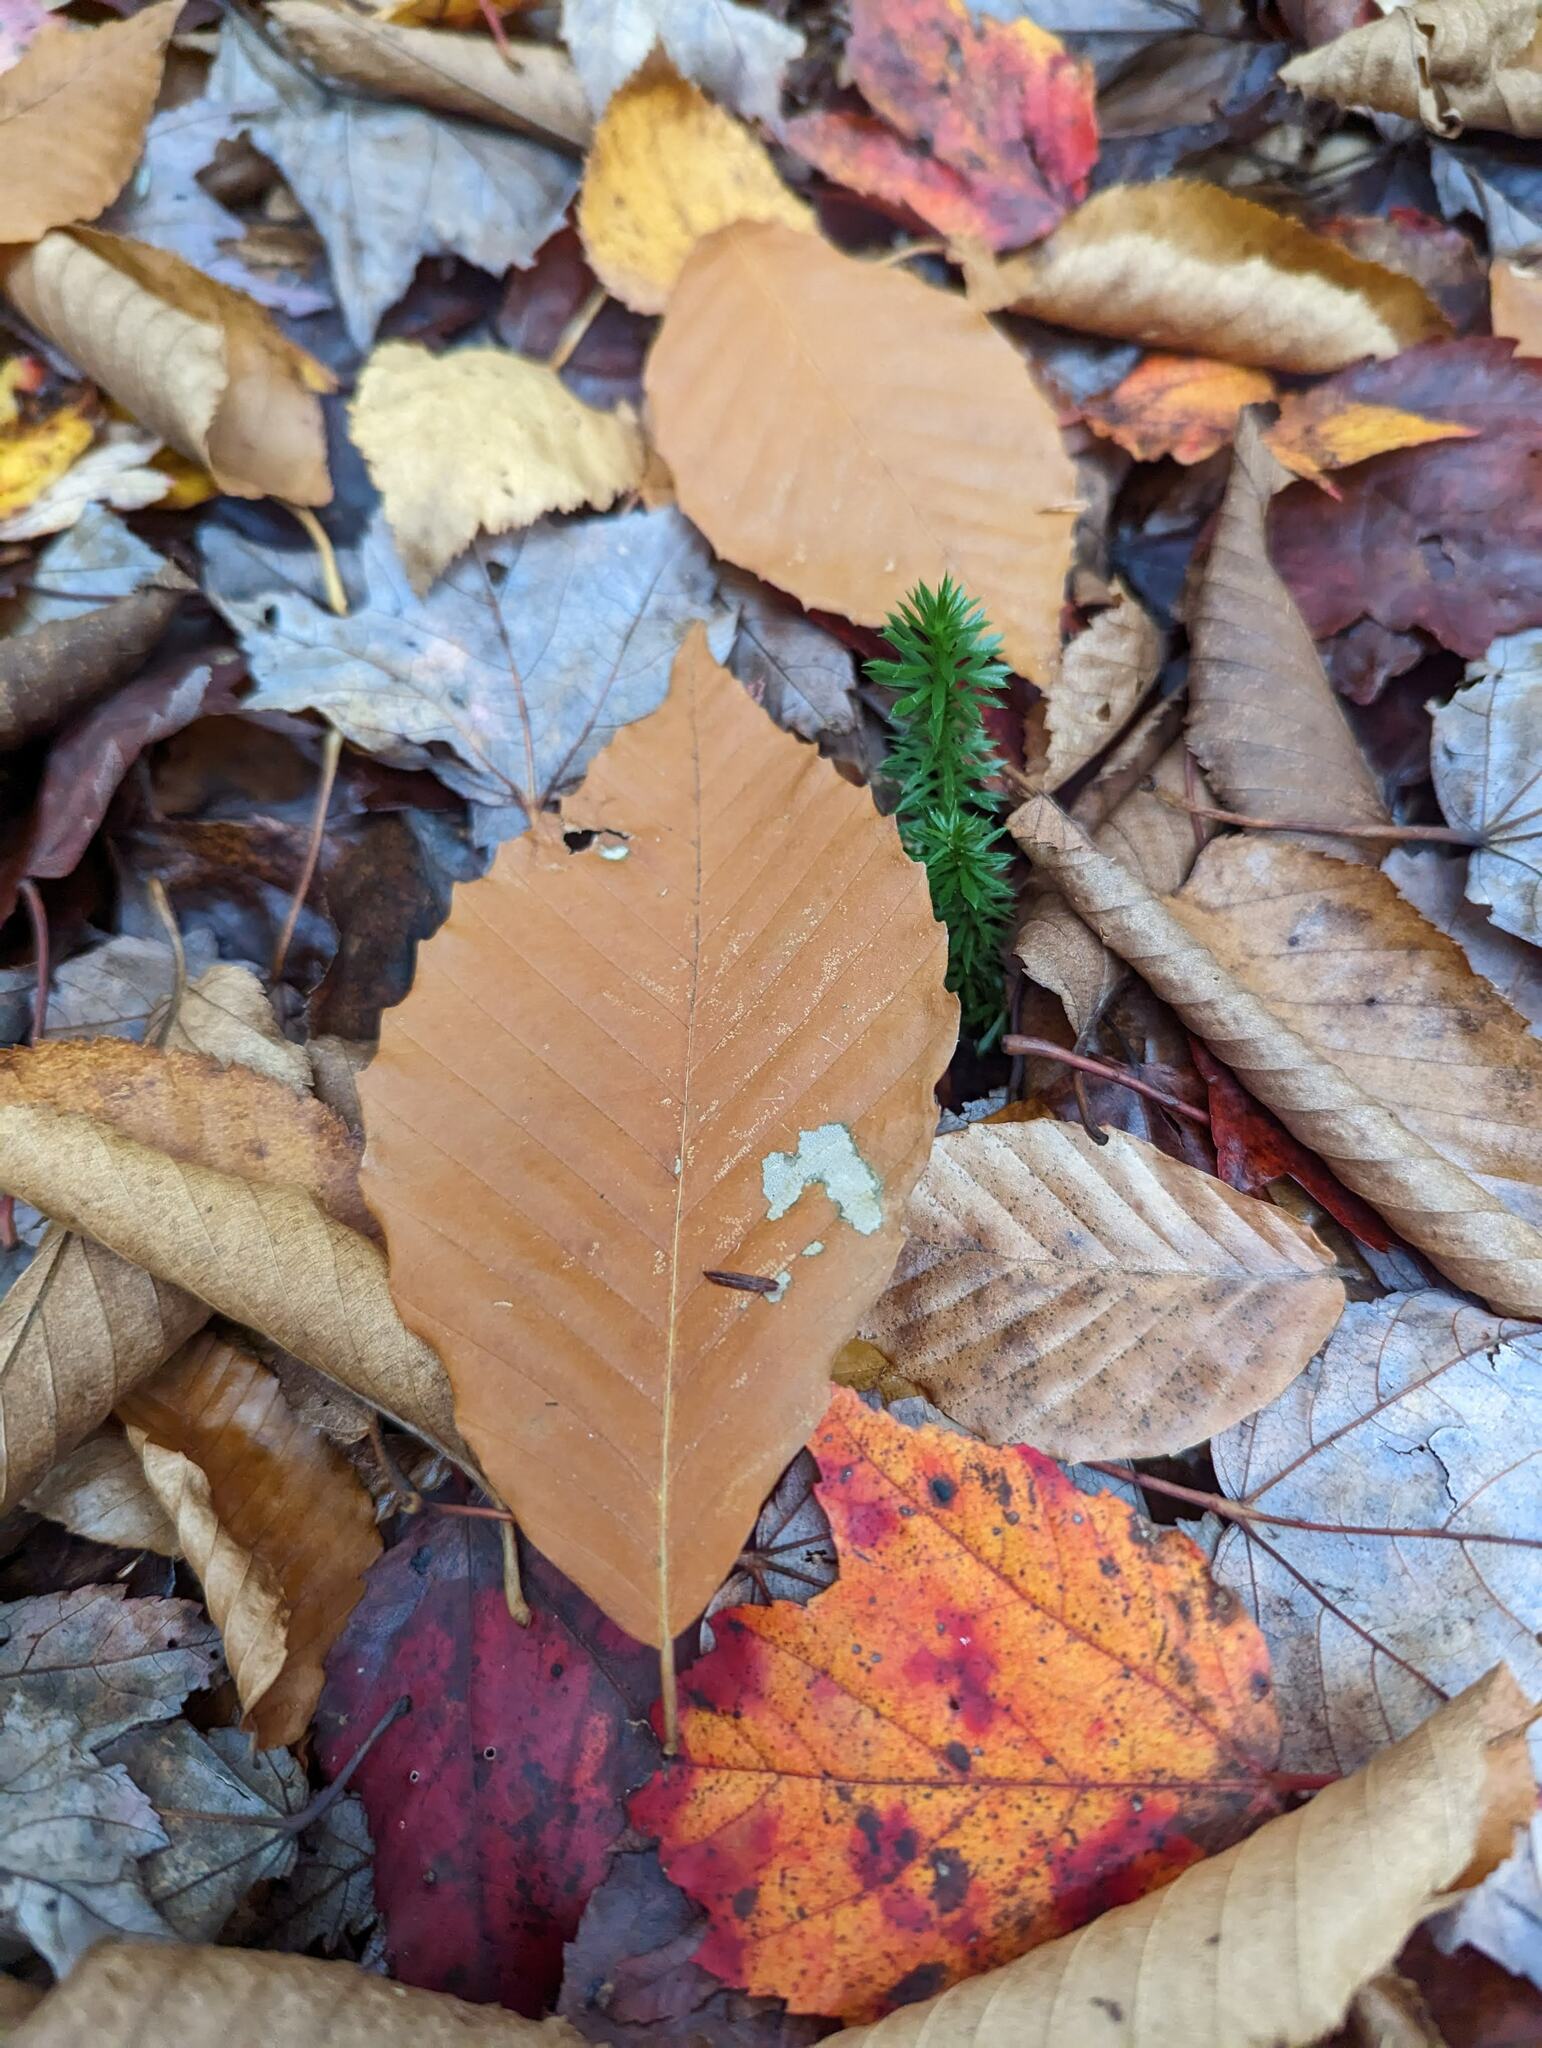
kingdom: Plantae
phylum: Tracheophyta
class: Magnoliopsida
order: Fagales
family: Fagaceae
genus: Fagus
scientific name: Fagus grandifolia
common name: American beech
